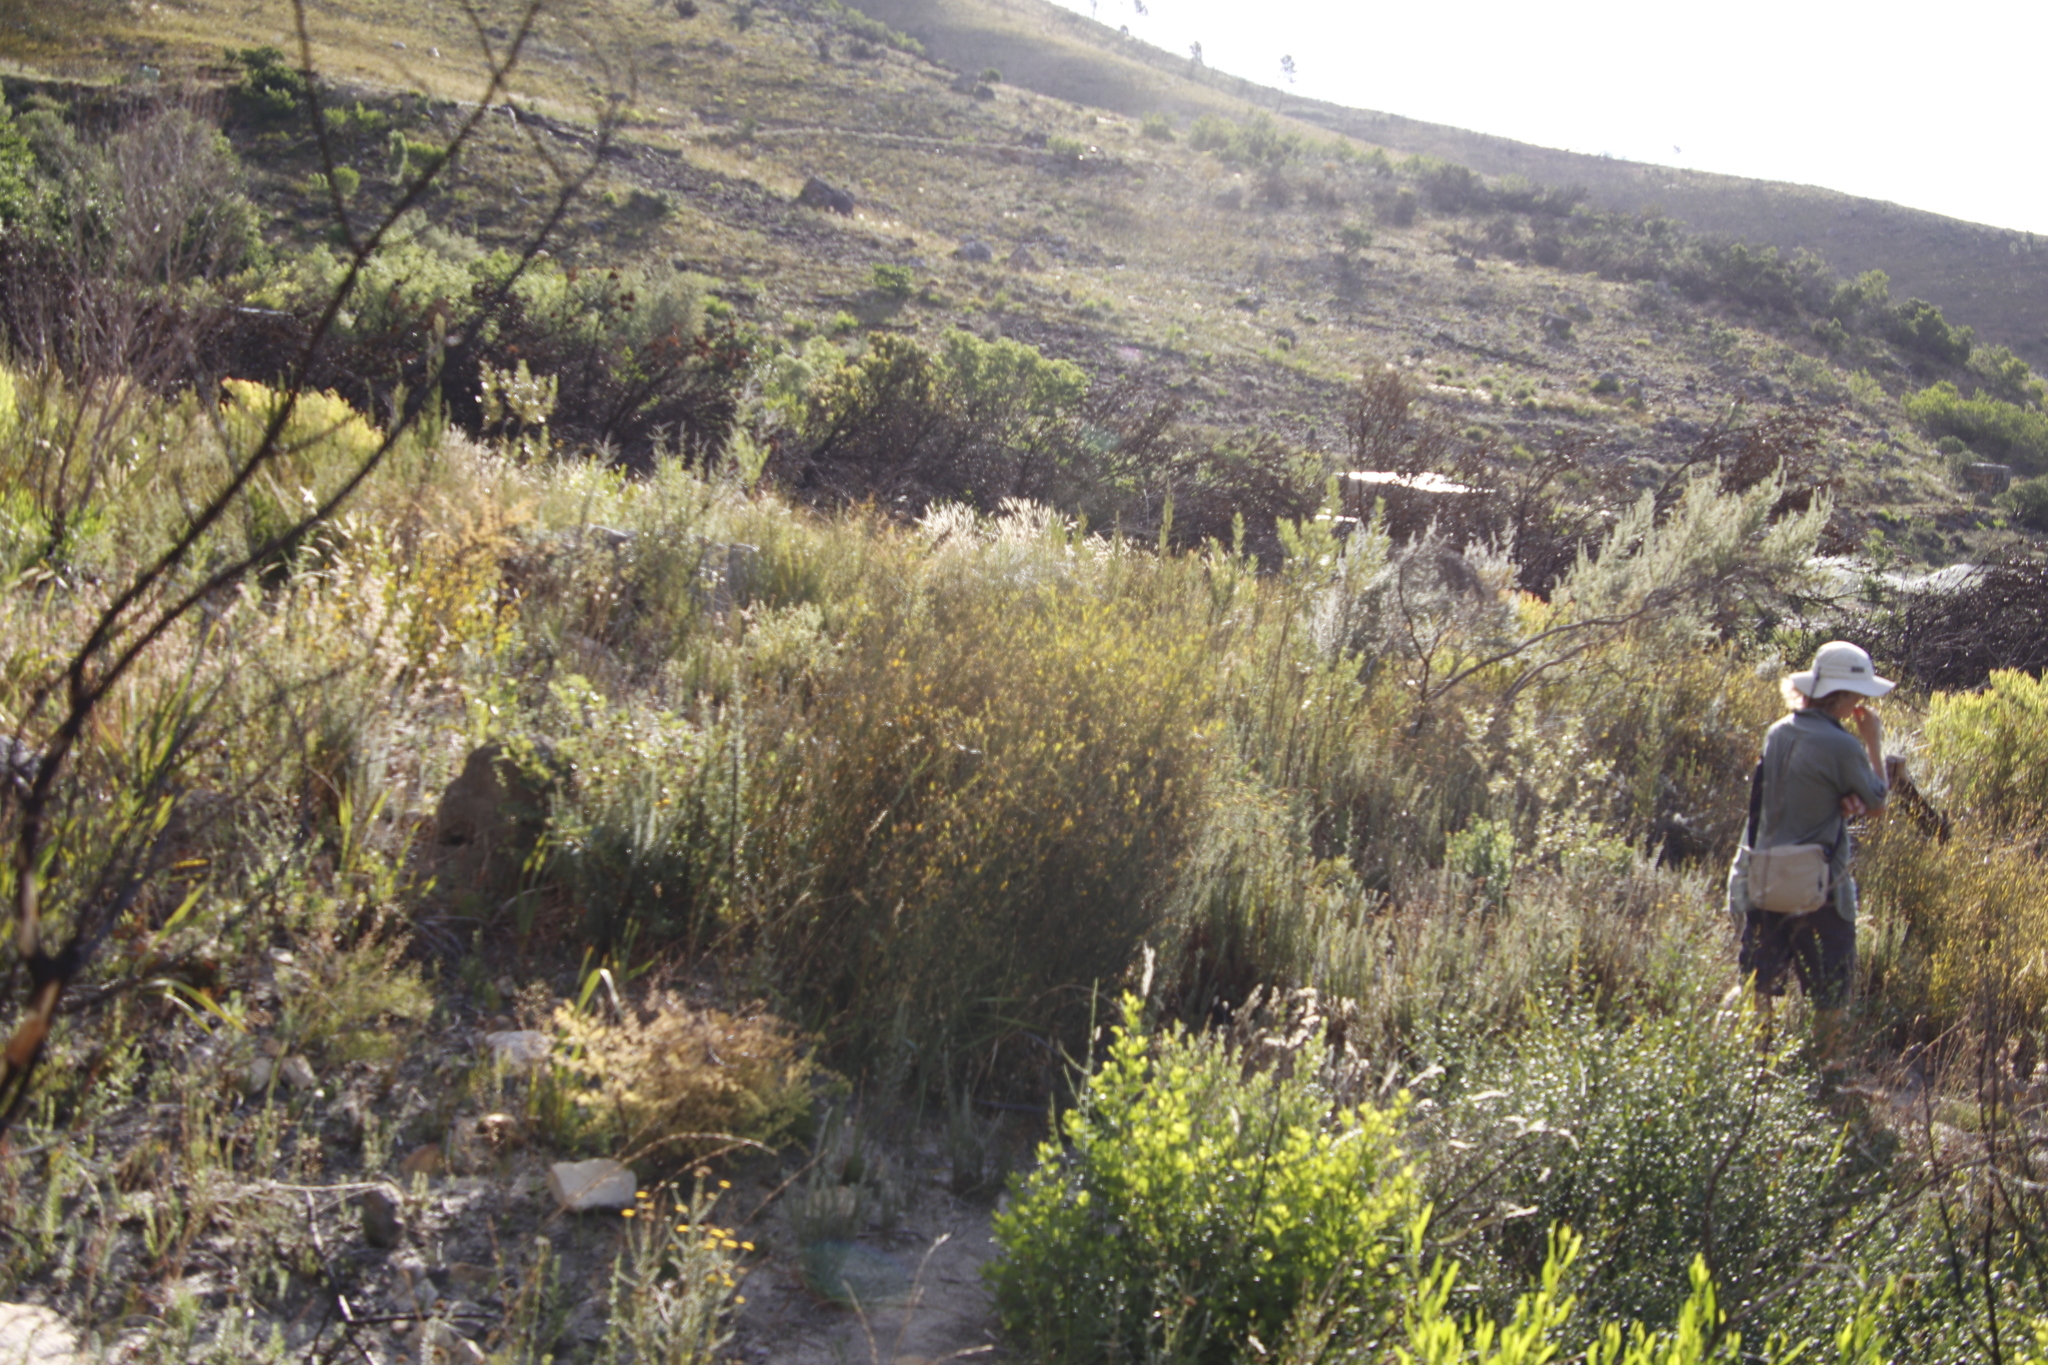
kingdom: Plantae
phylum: Tracheophyta
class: Magnoliopsida
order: Solanales
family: Montiniaceae
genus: Montinia
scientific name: Montinia caryophyllacea
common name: Wild clove-bush
